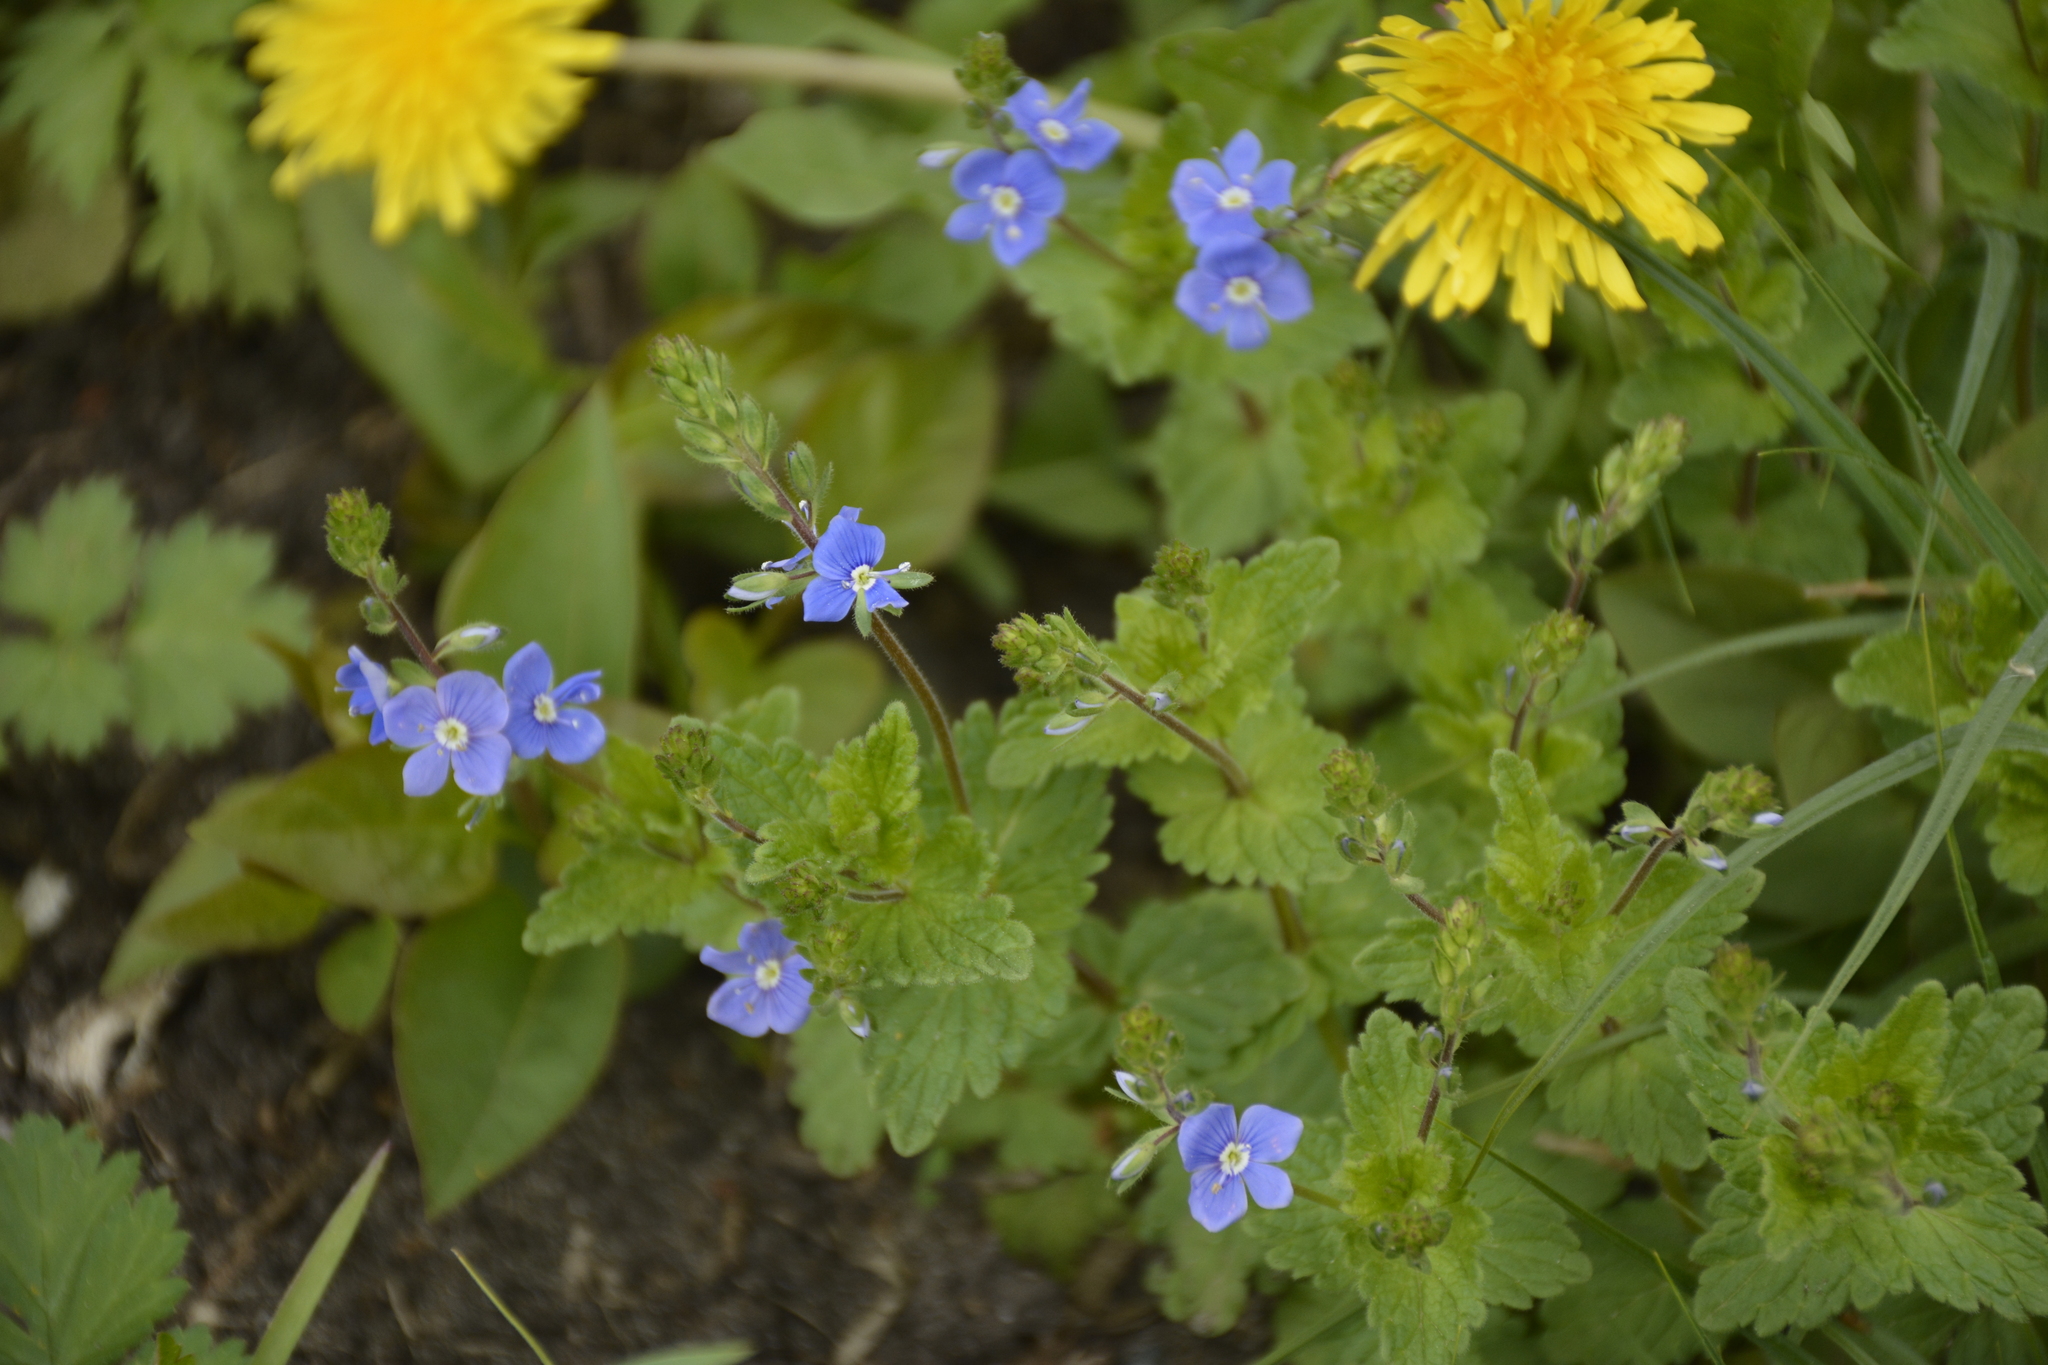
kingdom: Plantae
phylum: Tracheophyta
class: Magnoliopsida
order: Lamiales
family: Plantaginaceae
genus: Veronica
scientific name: Veronica chamaedrys
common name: Germander speedwell
